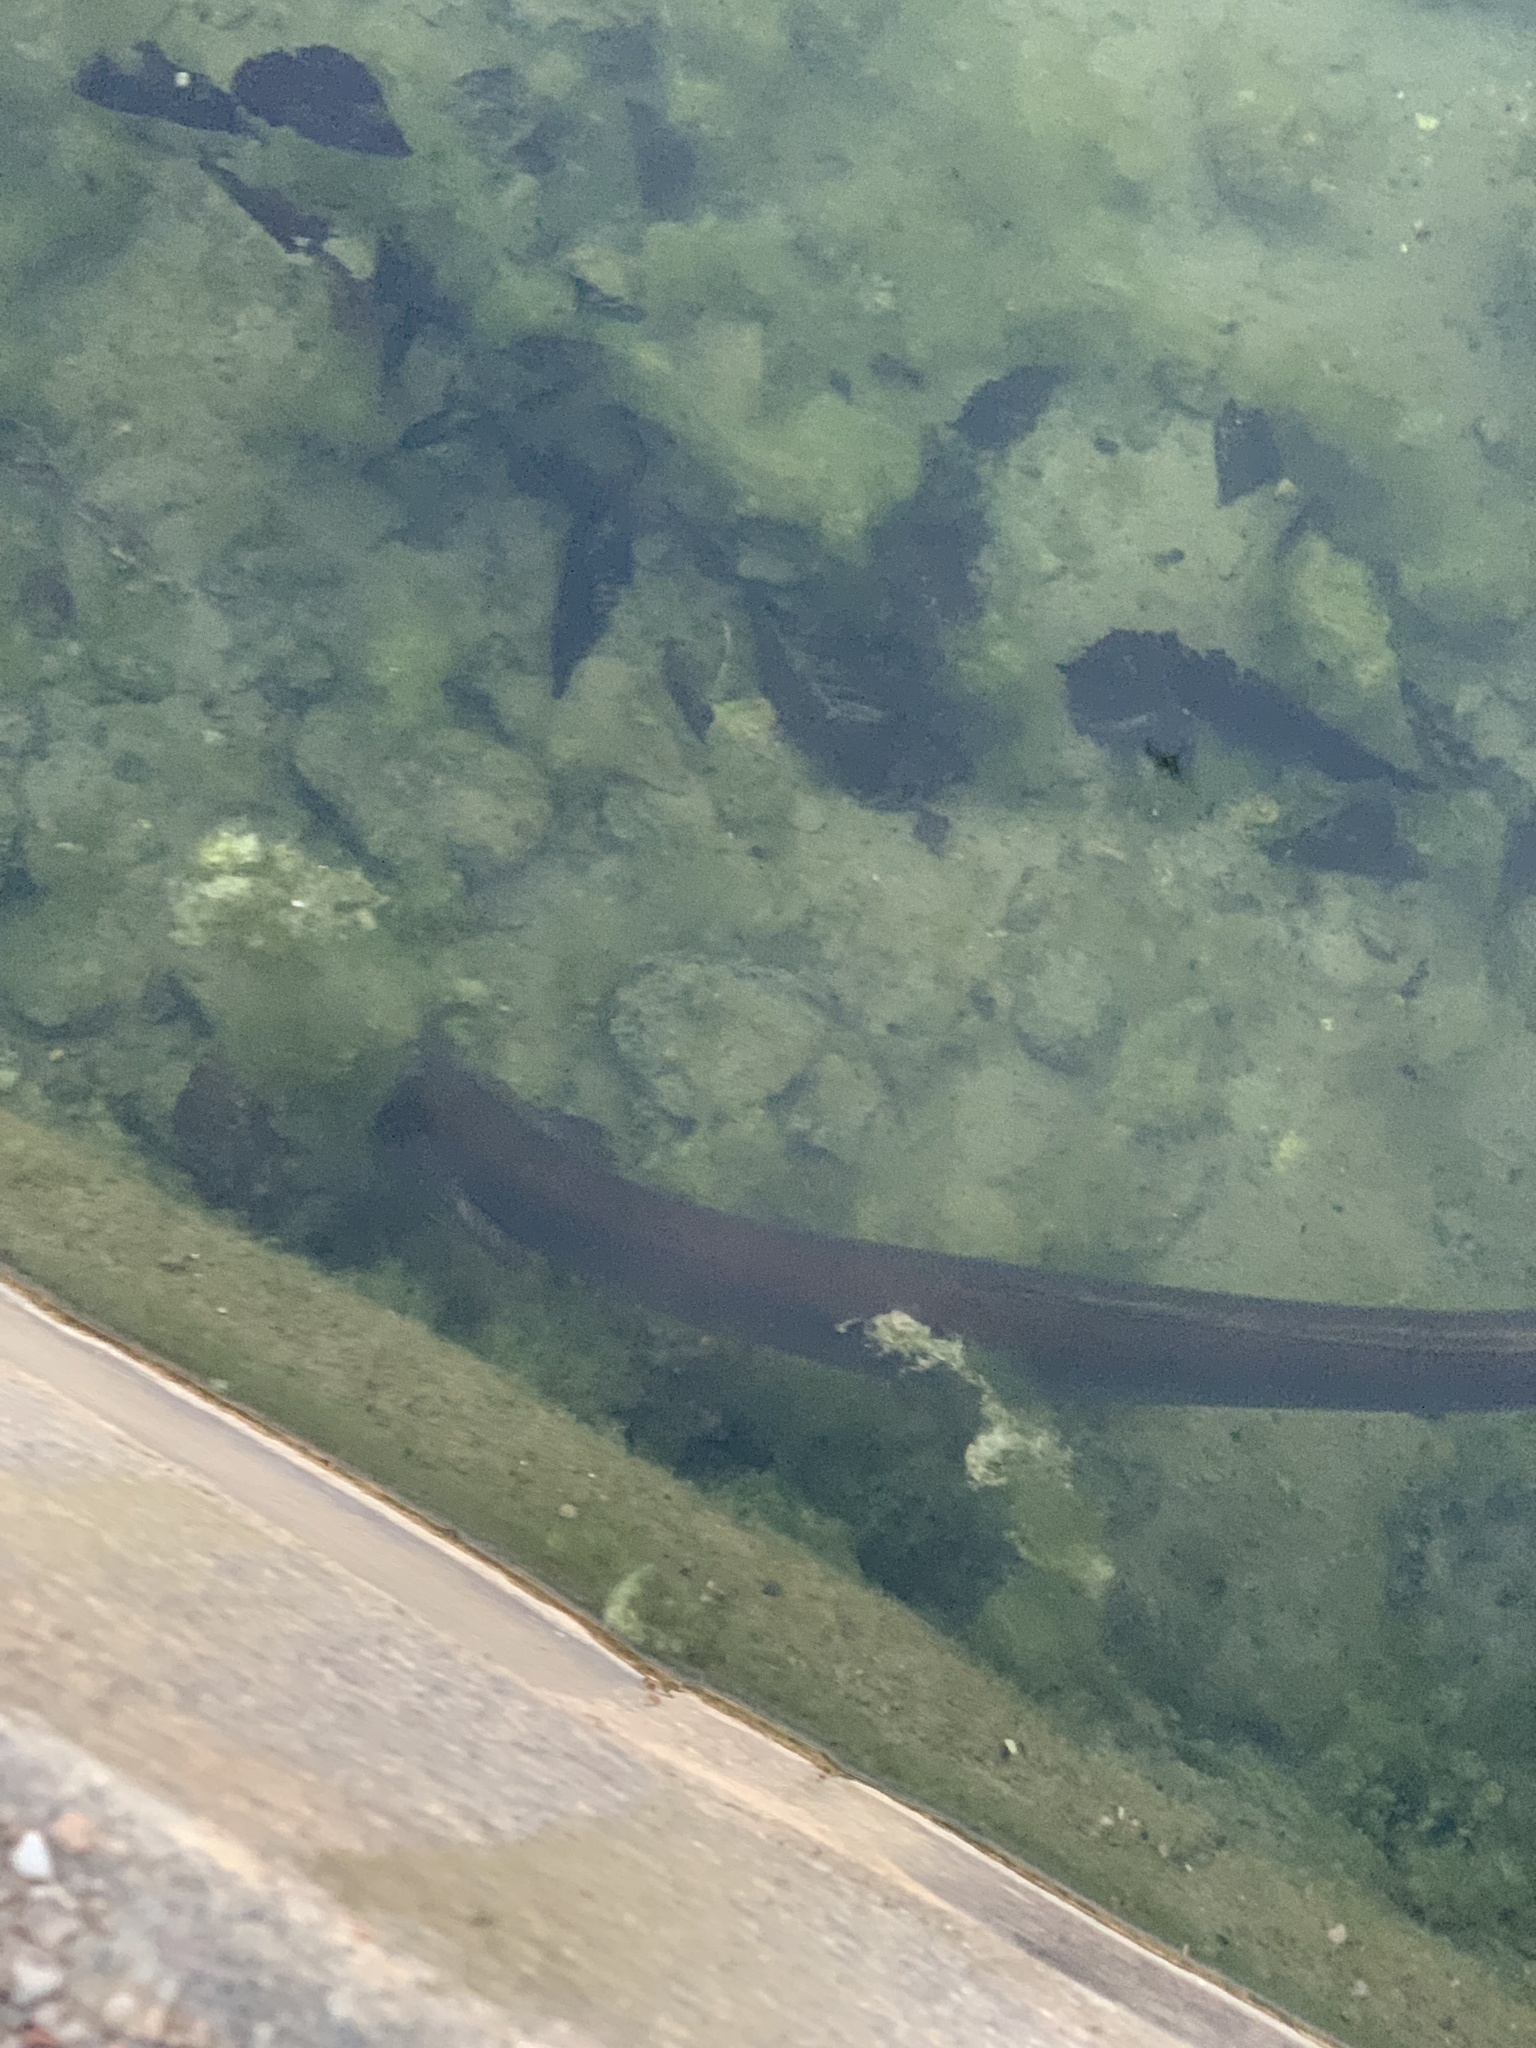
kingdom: Animalia
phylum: Chordata
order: Anguilliformes
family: Anguillidae
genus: Anguilla
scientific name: Anguilla anguilla
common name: European eel
